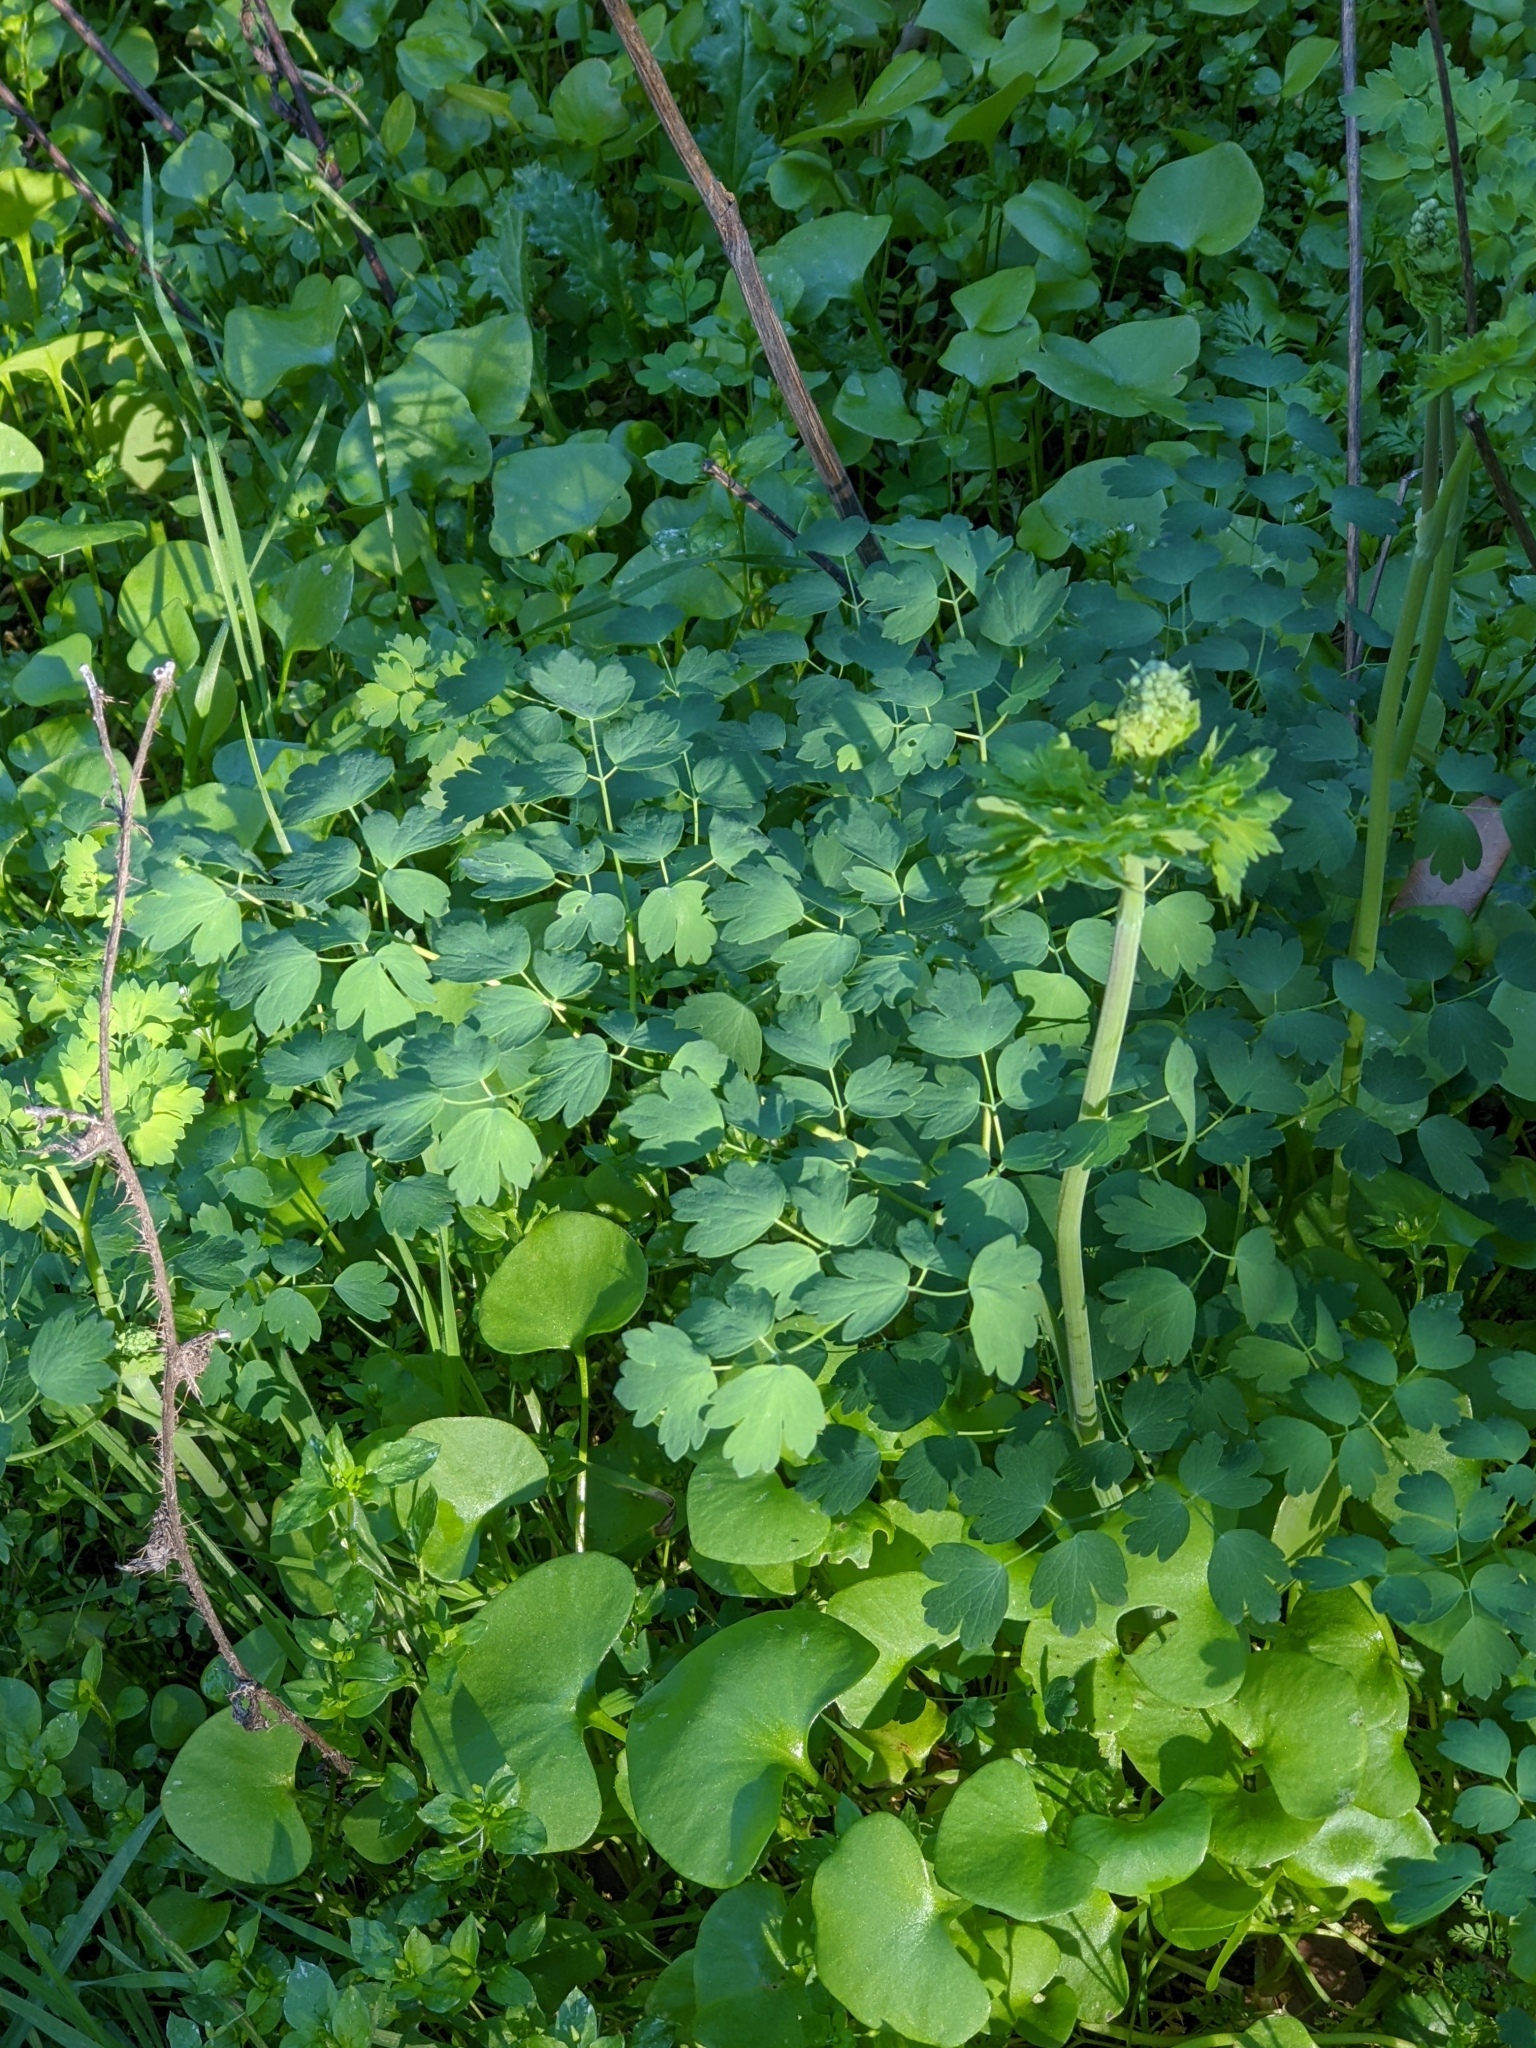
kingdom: Plantae
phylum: Tracheophyta
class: Magnoliopsida
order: Ranunculales
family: Ranunculaceae
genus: Thalictrum
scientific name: Thalictrum fendleri
